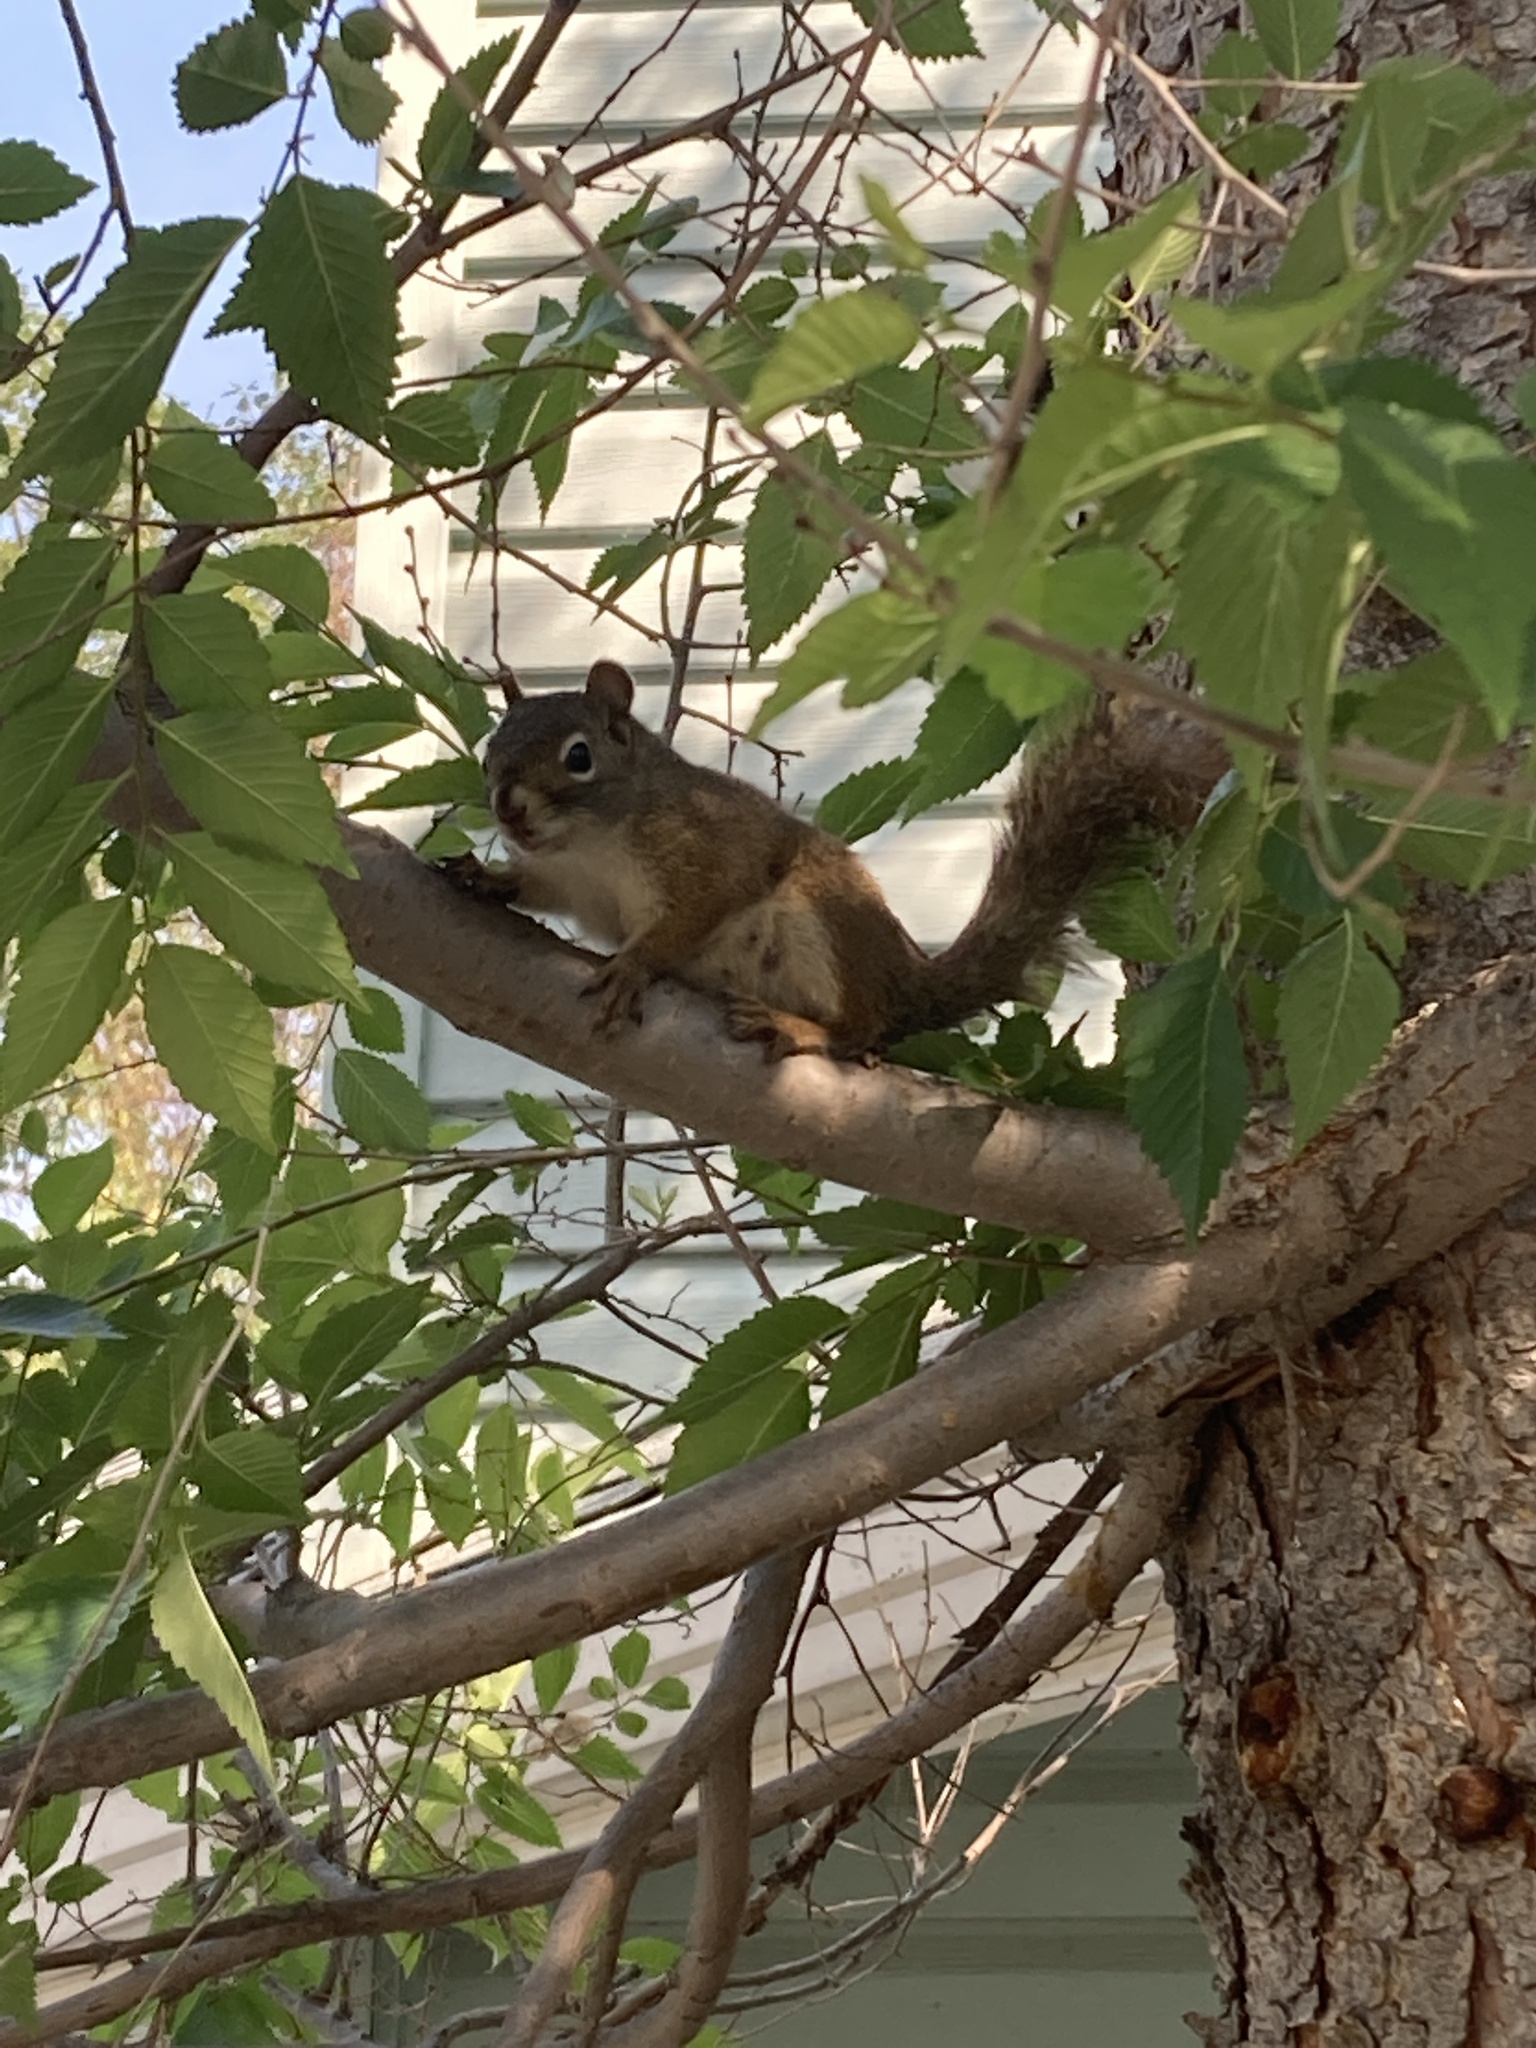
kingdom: Animalia
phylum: Chordata
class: Mammalia
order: Rodentia
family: Sciuridae
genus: Tamiasciurus
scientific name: Tamiasciurus hudsonicus
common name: Red squirrel
